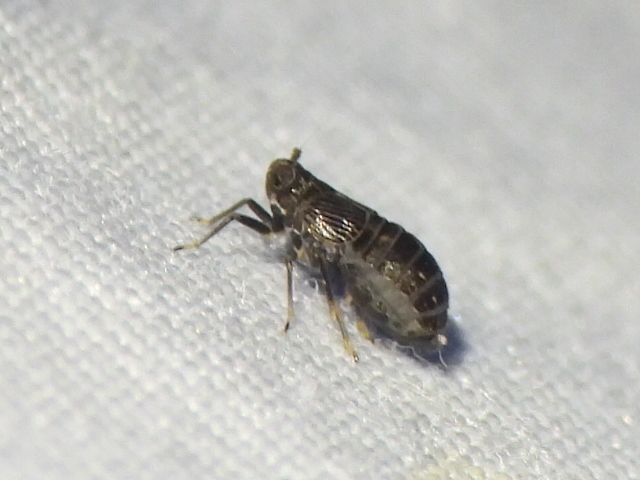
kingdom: Animalia
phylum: Arthropoda
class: Insecta
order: Hemiptera
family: Delphacidae
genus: Pissonotus
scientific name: Pissonotus brunneus
